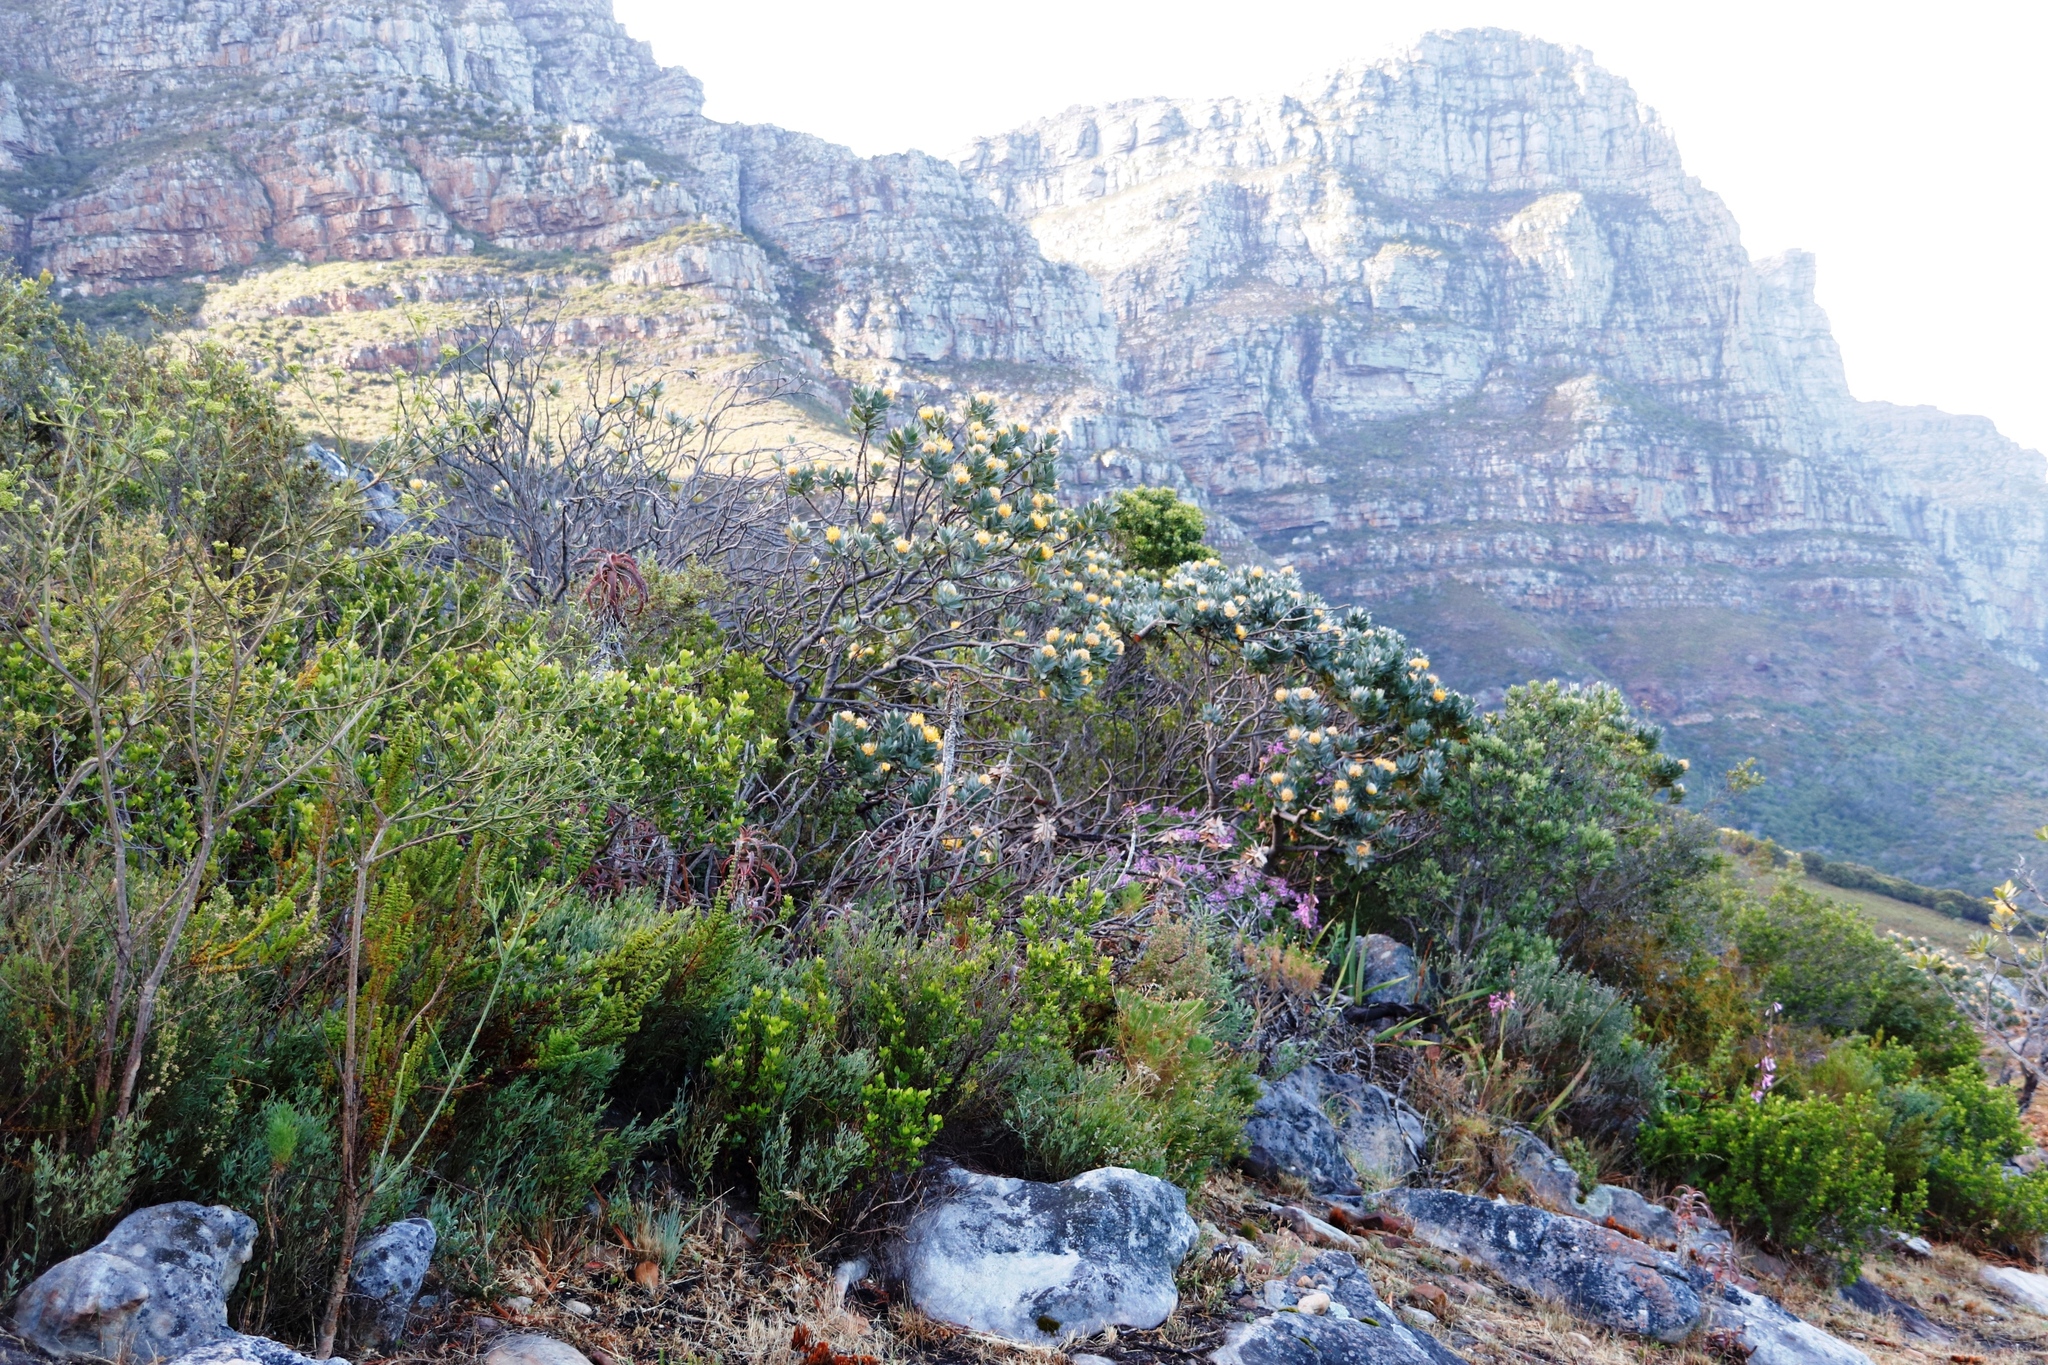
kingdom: Plantae
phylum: Tracheophyta
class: Magnoliopsida
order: Proteales
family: Proteaceae
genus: Leucospermum
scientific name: Leucospermum conocarpodendron
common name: Tree pincushion
